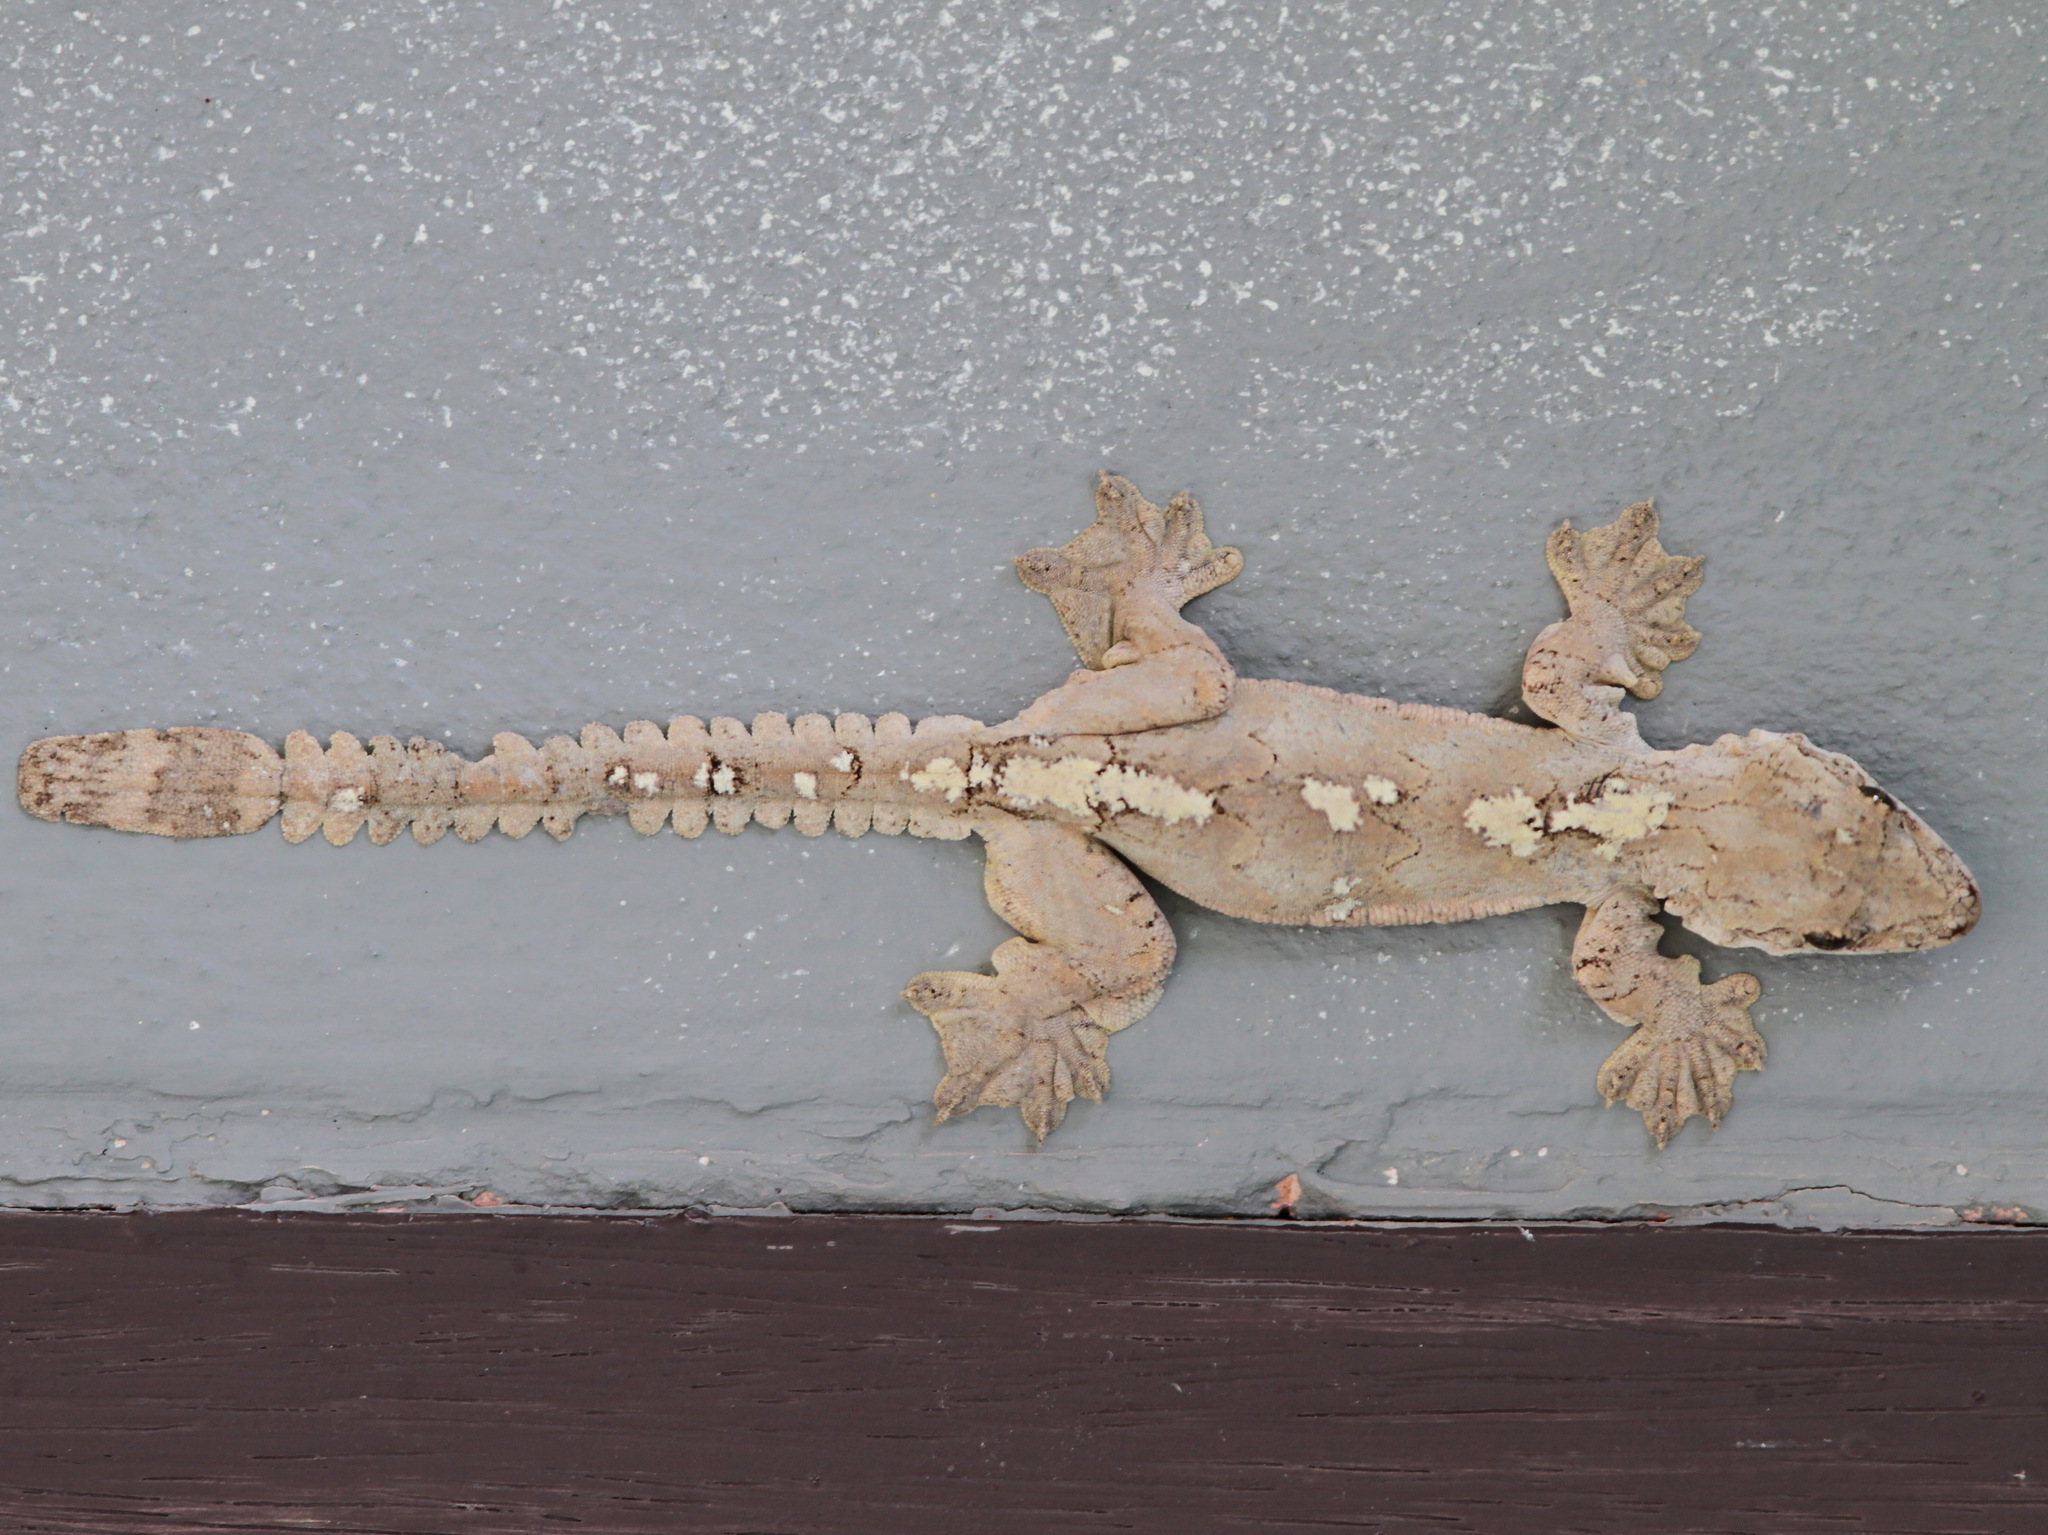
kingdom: Animalia
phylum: Chordata
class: Squamata
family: Gekkonidae
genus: Gekko
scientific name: Gekko tokehos
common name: Cambodian parachute gecko
